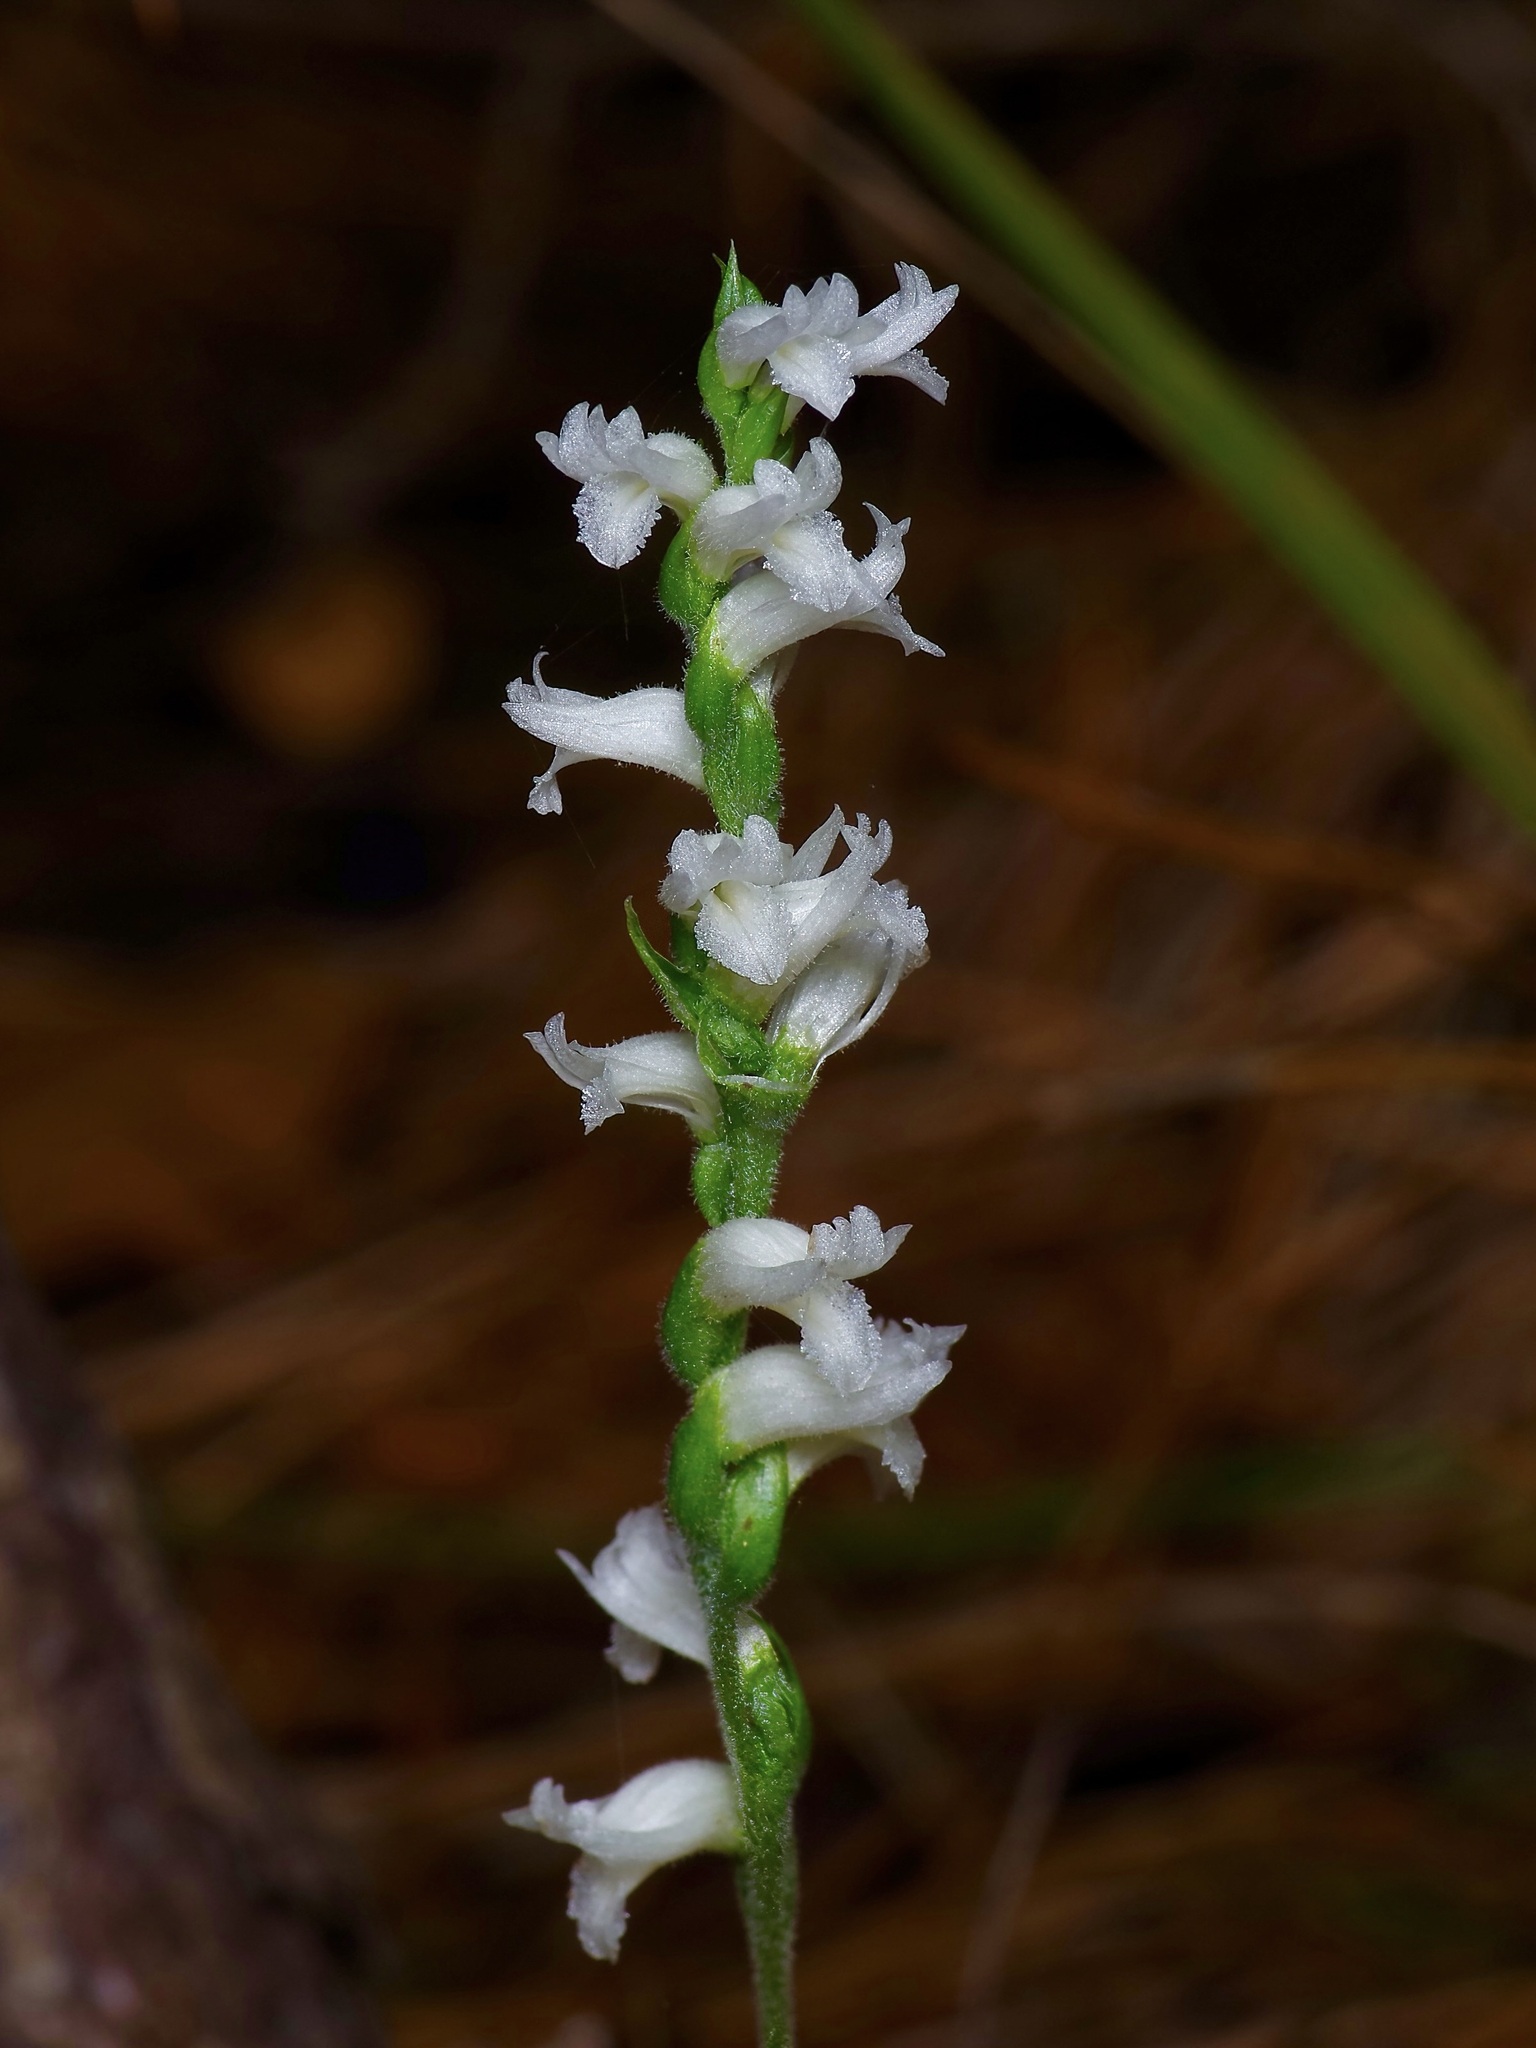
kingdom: Plantae
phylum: Tracheophyta
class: Liliopsida
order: Asparagales
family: Orchidaceae
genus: Spiranthes
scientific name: Spiranthes cernua
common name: Dropping ladies'-tresses
